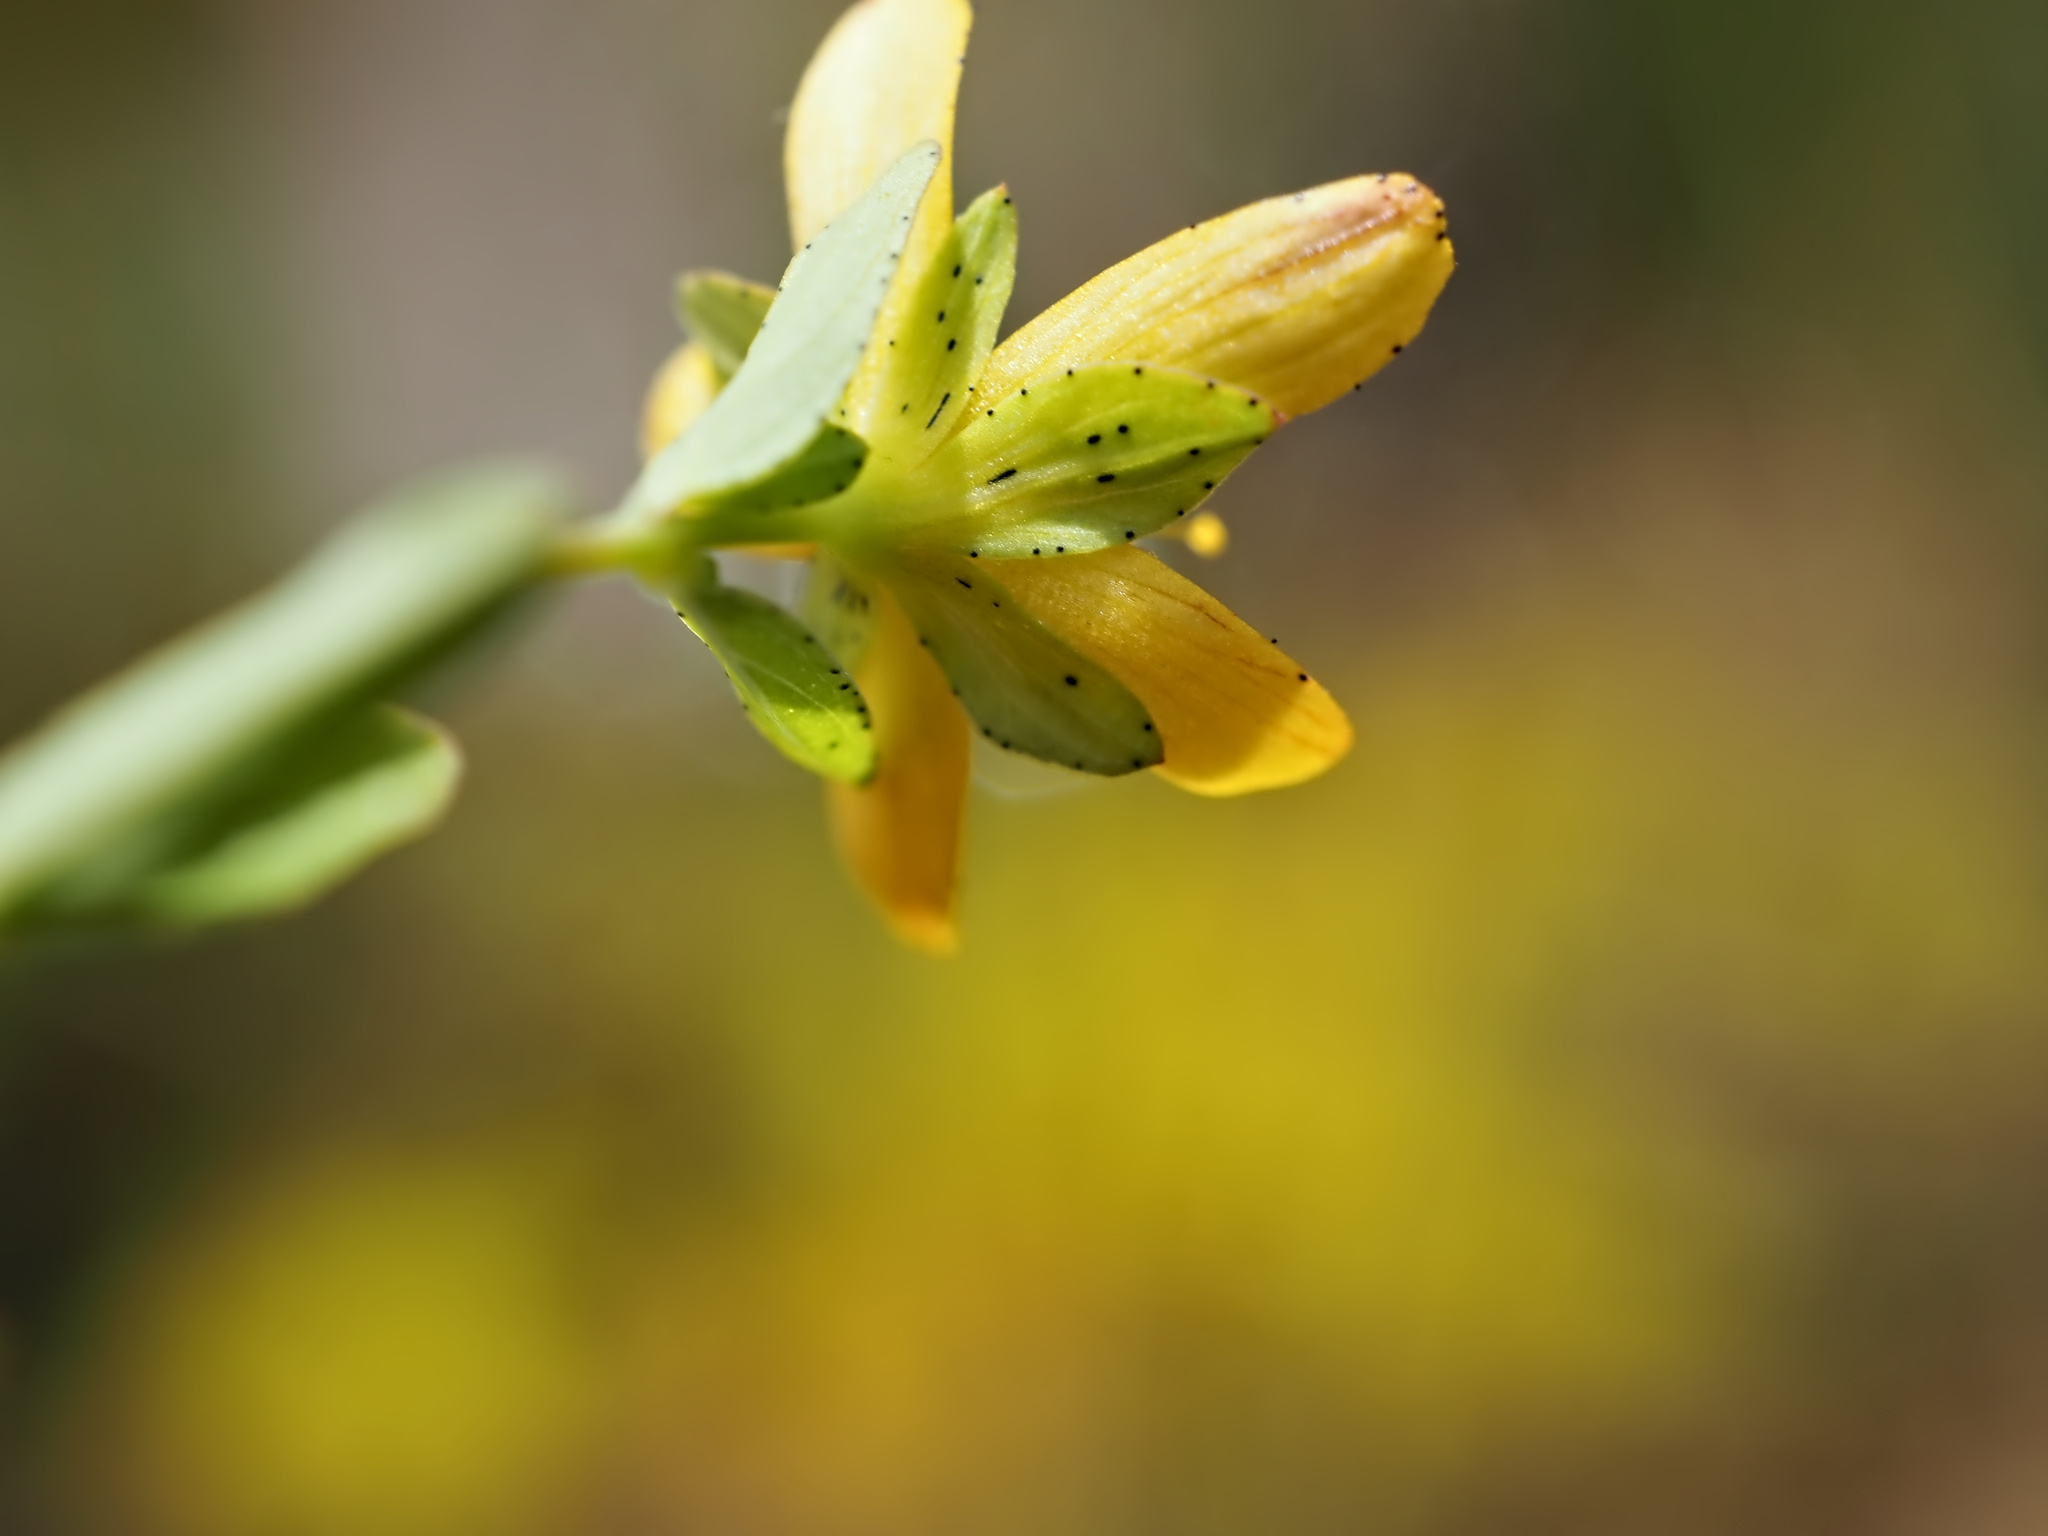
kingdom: Plantae
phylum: Tracheophyta
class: Magnoliopsida
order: Malpighiales
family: Hypericaceae
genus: Hypericum
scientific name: Hypericum humifusum
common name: Trailing st. john's-wort
